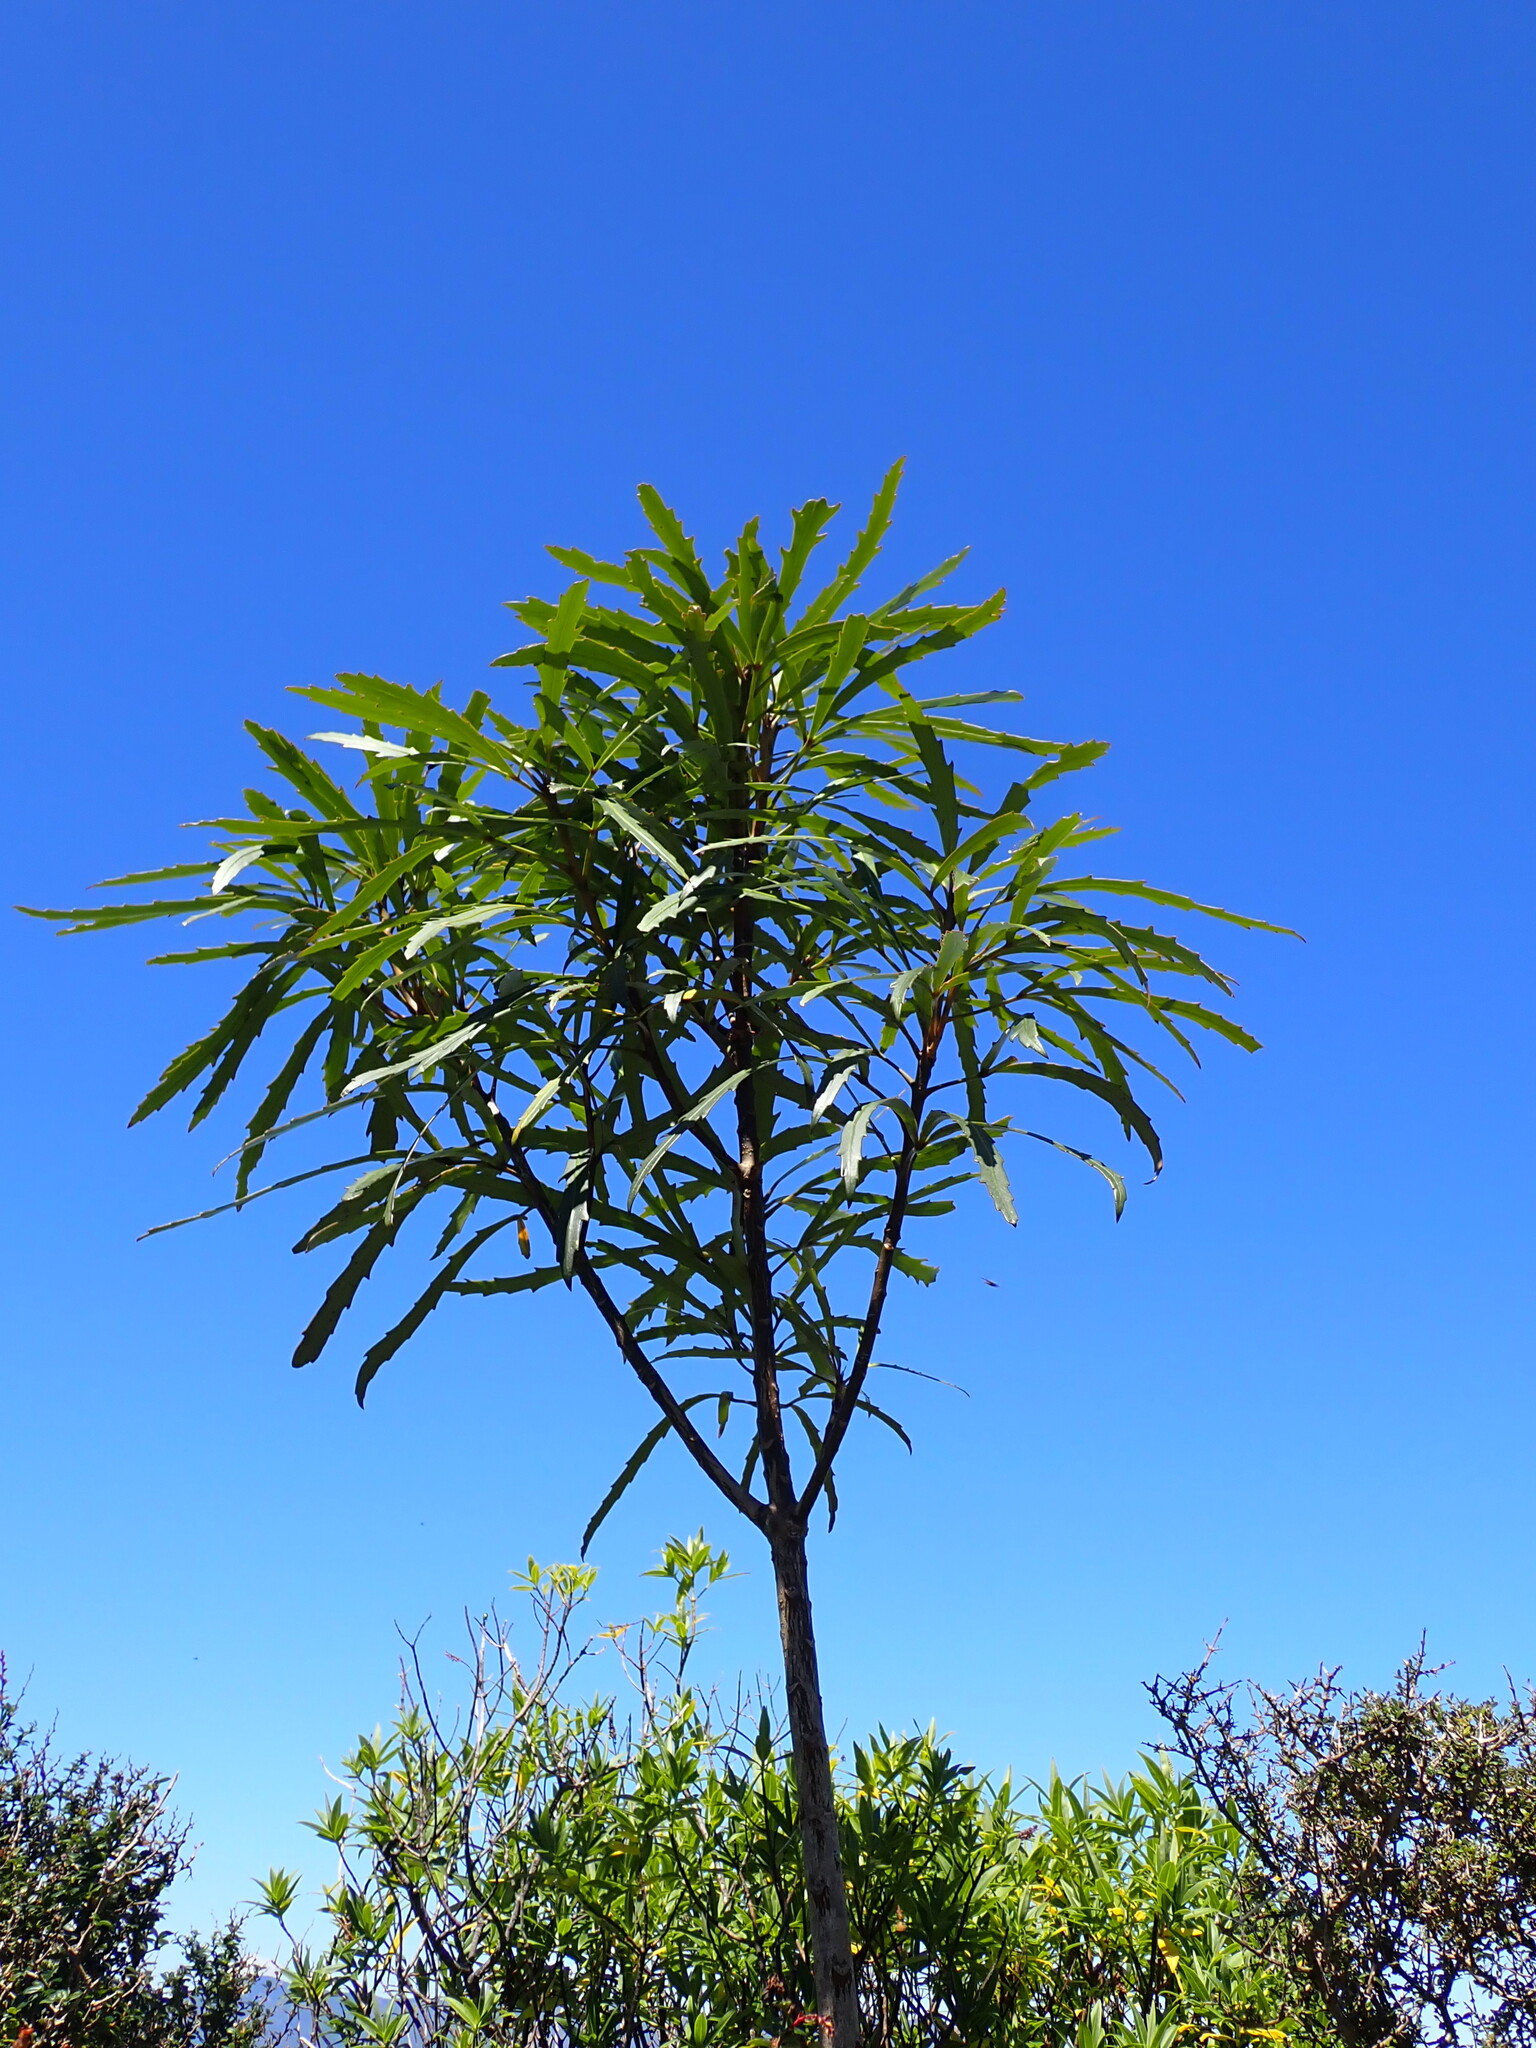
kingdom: Plantae
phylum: Tracheophyta
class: Magnoliopsida
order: Apiales
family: Araliaceae
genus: Pseudopanax
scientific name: Pseudopanax
